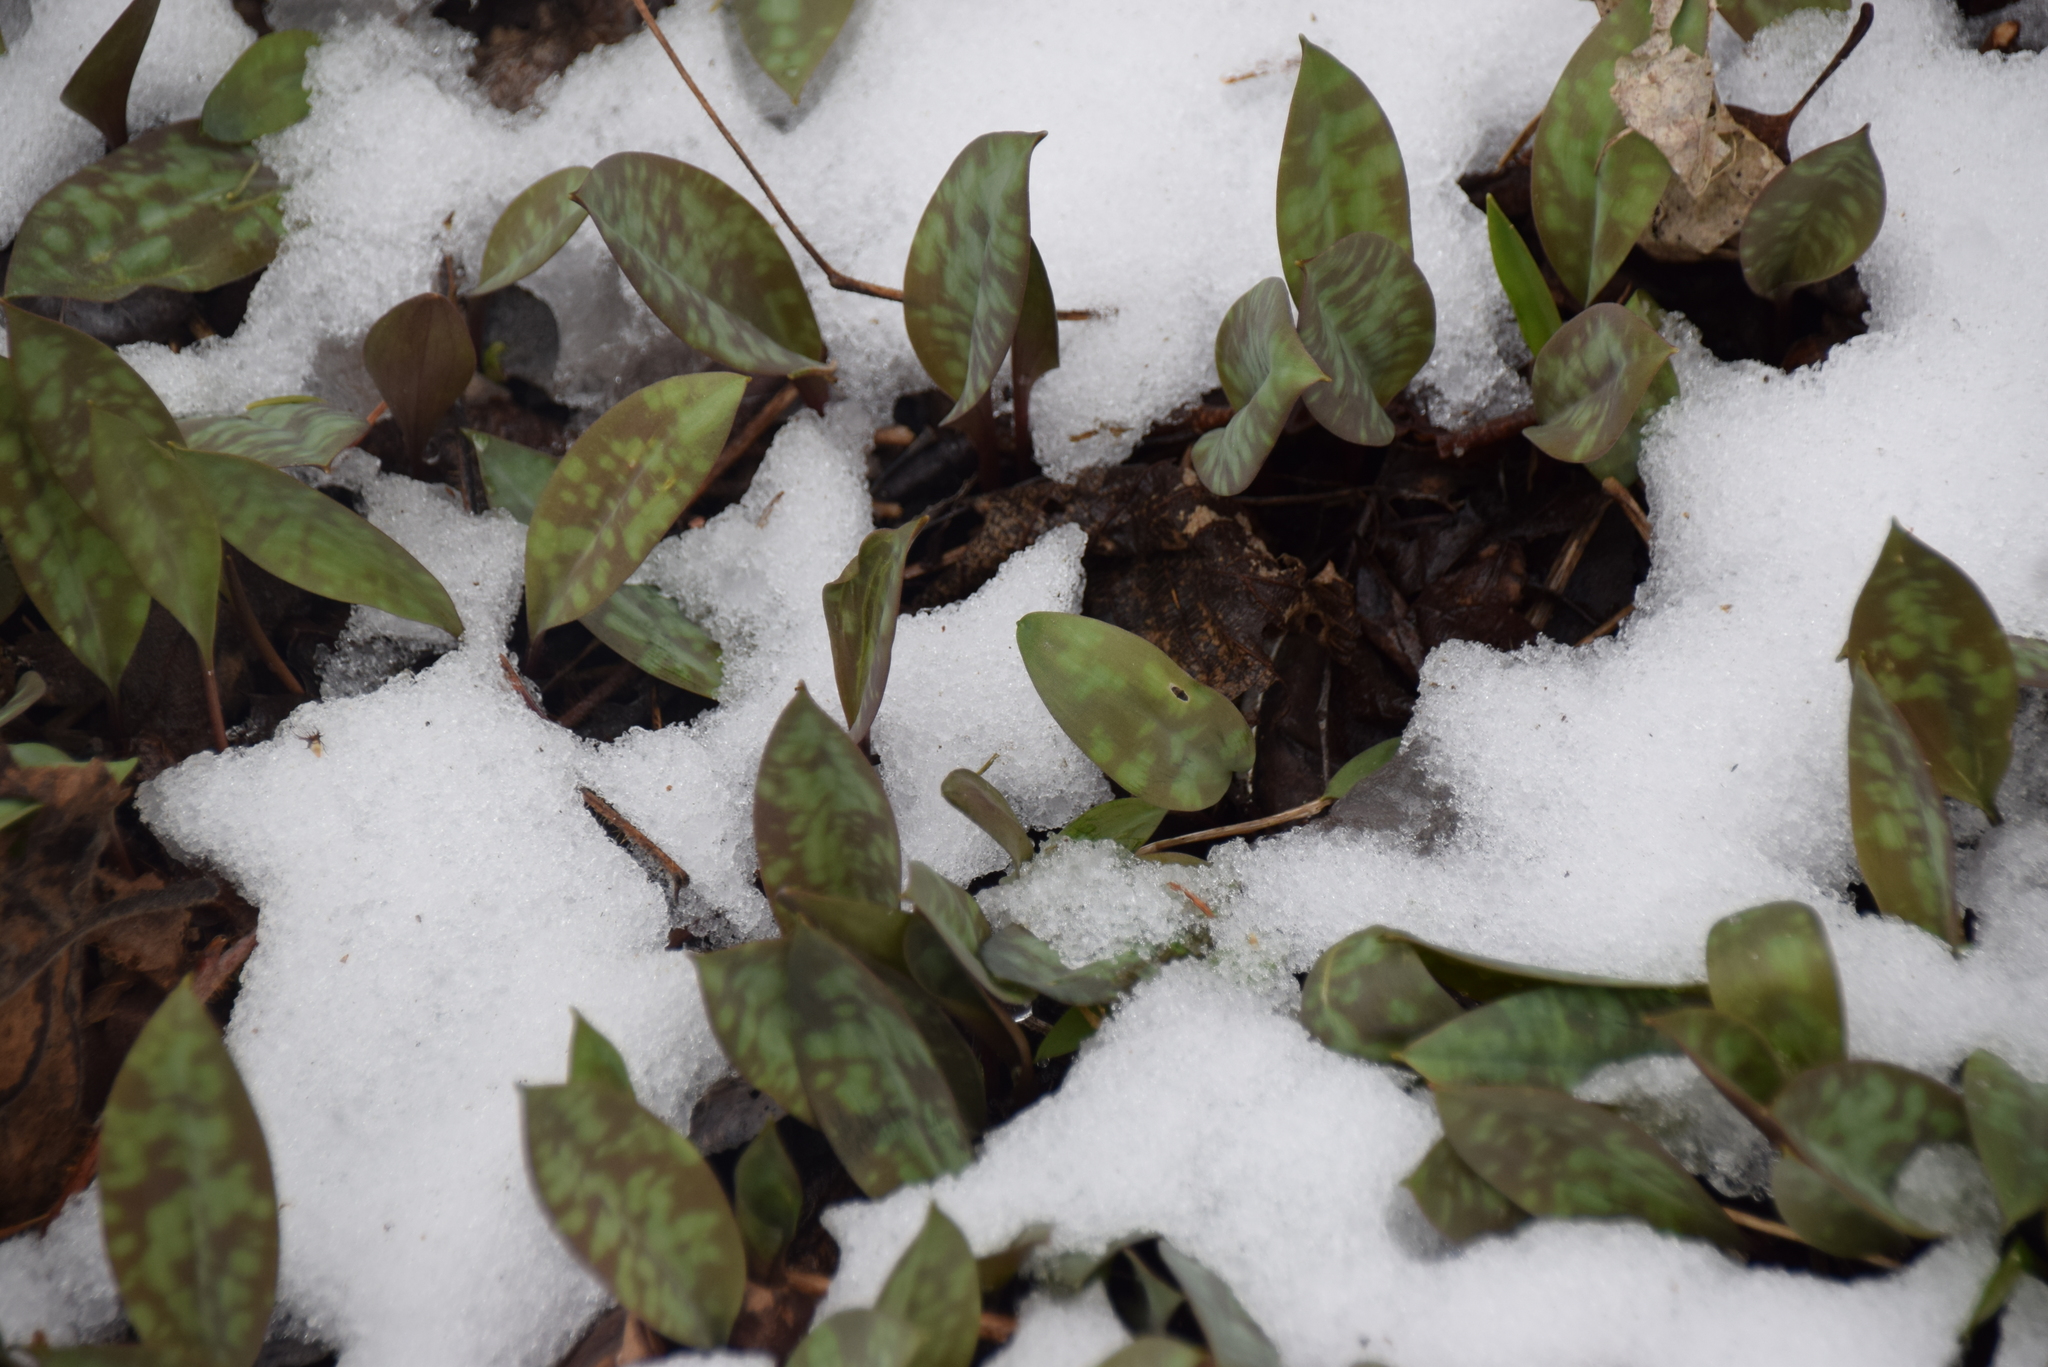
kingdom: Plantae
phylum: Tracheophyta
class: Liliopsida
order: Liliales
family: Liliaceae
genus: Erythronium
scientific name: Erythronium americanum
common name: Yellow adder's-tongue
